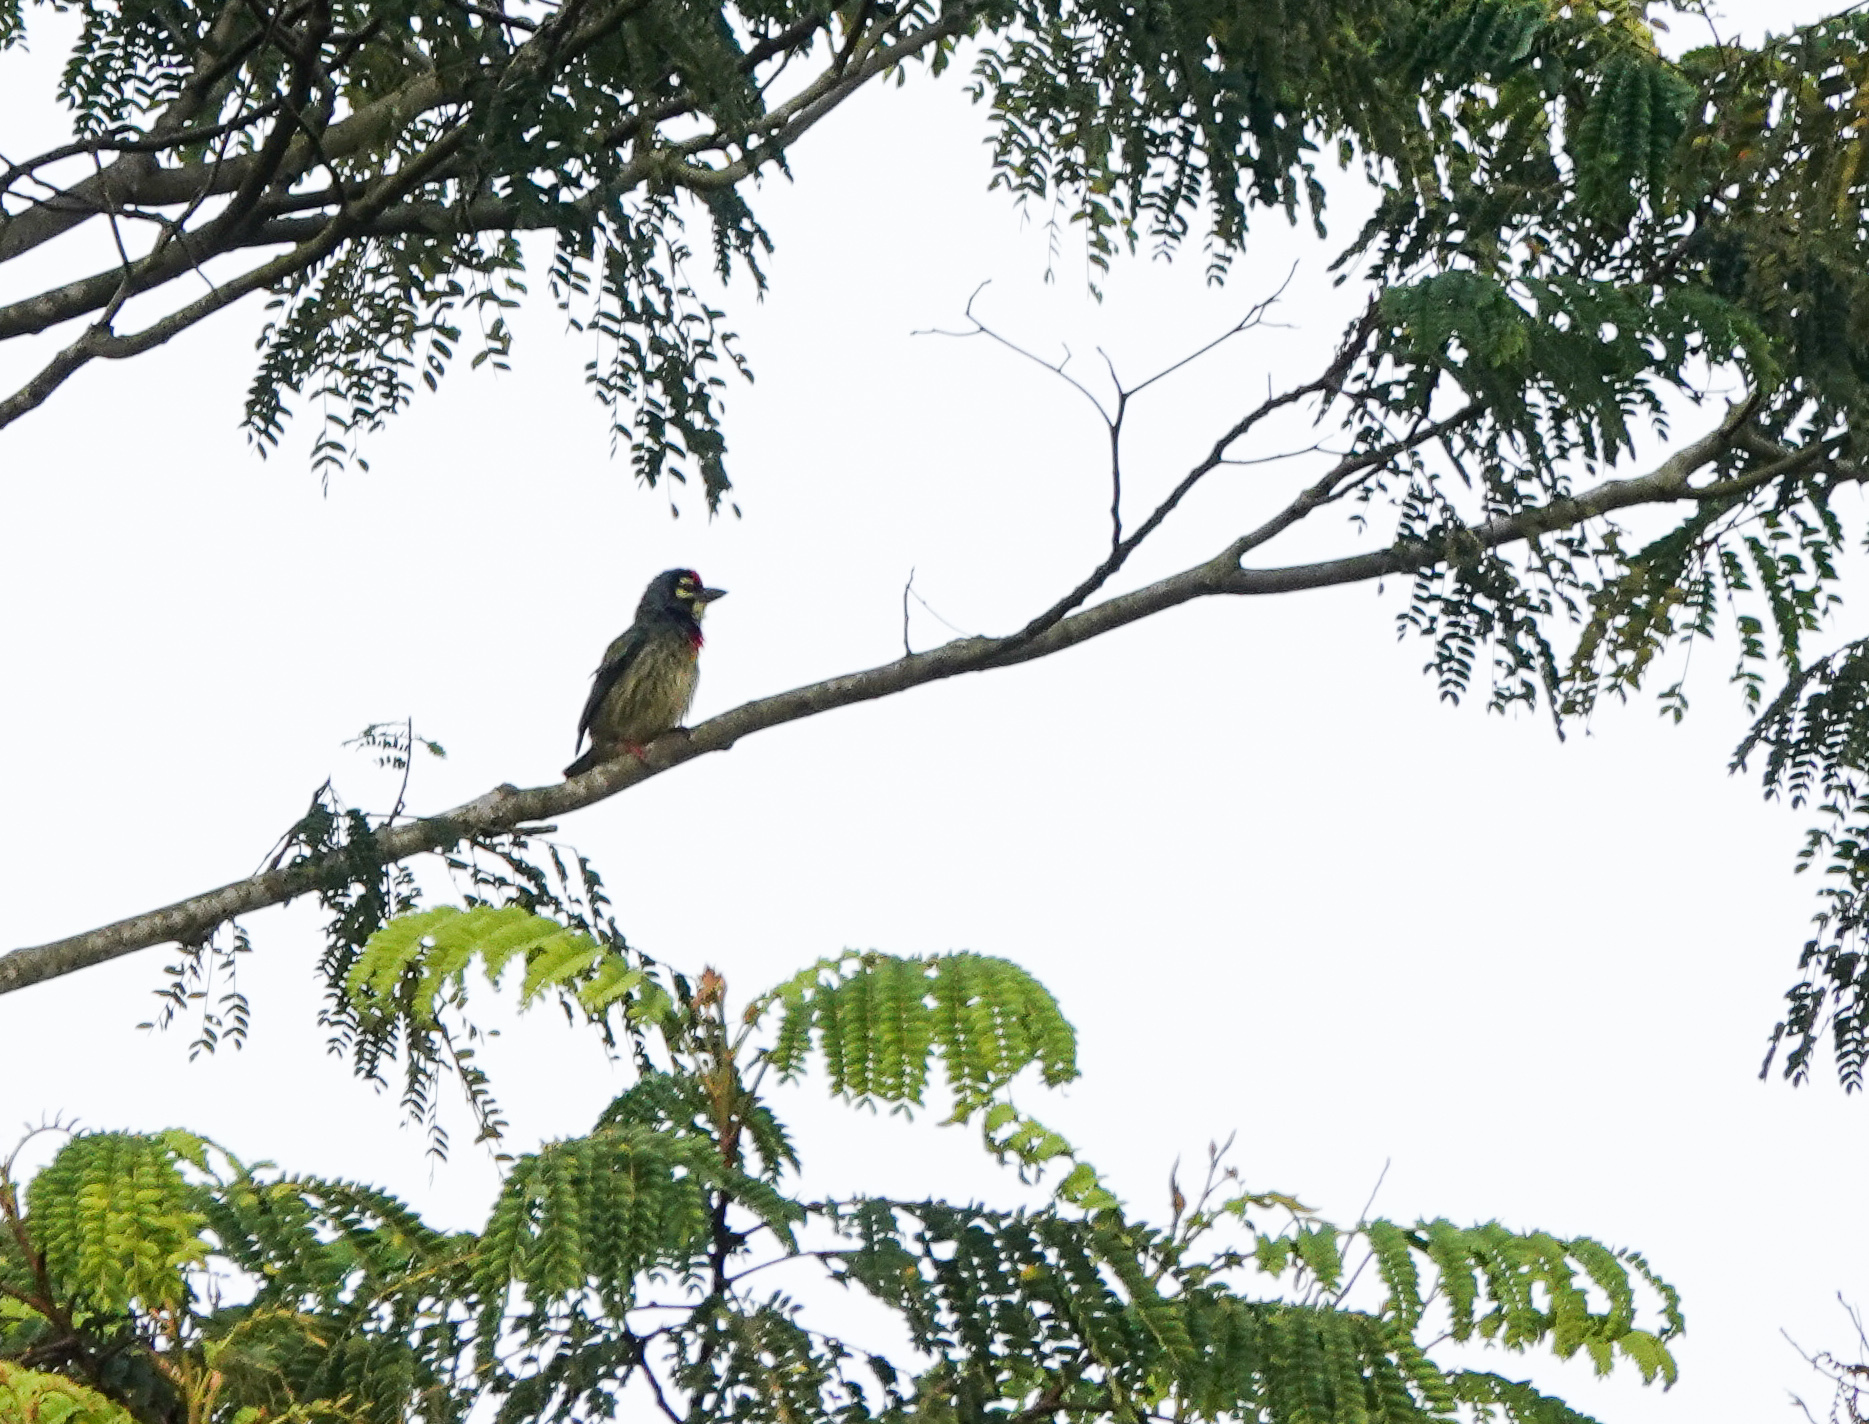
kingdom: Animalia
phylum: Chordata
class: Aves
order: Piciformes
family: Megalaimidae
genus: Psilopogon
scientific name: Psilopogon haemacephalus
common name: Coppersmith barbet
